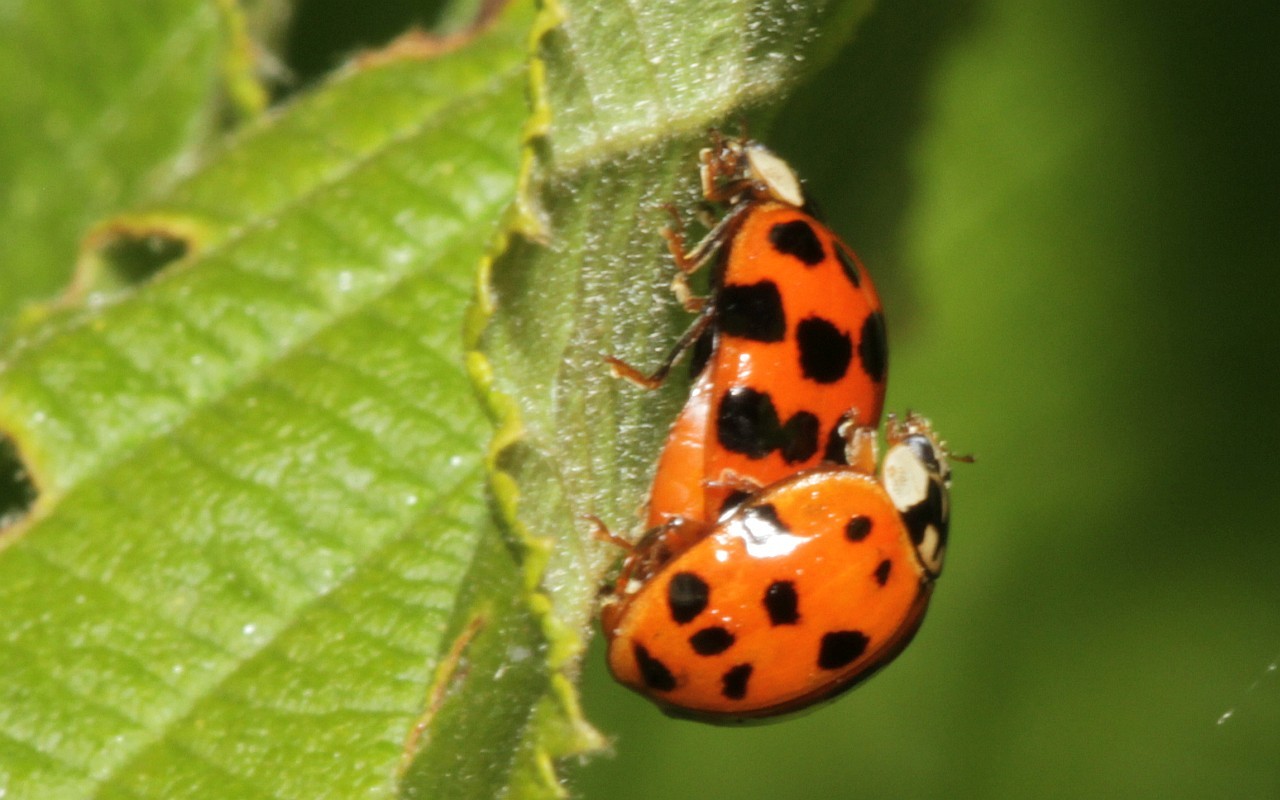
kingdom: Animalia
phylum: Arthropoda
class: Insecta
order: Coleoptera
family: Coccinellidae
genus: Harmonia
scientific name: Harmonia axyridis
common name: Harlequin ladybird
